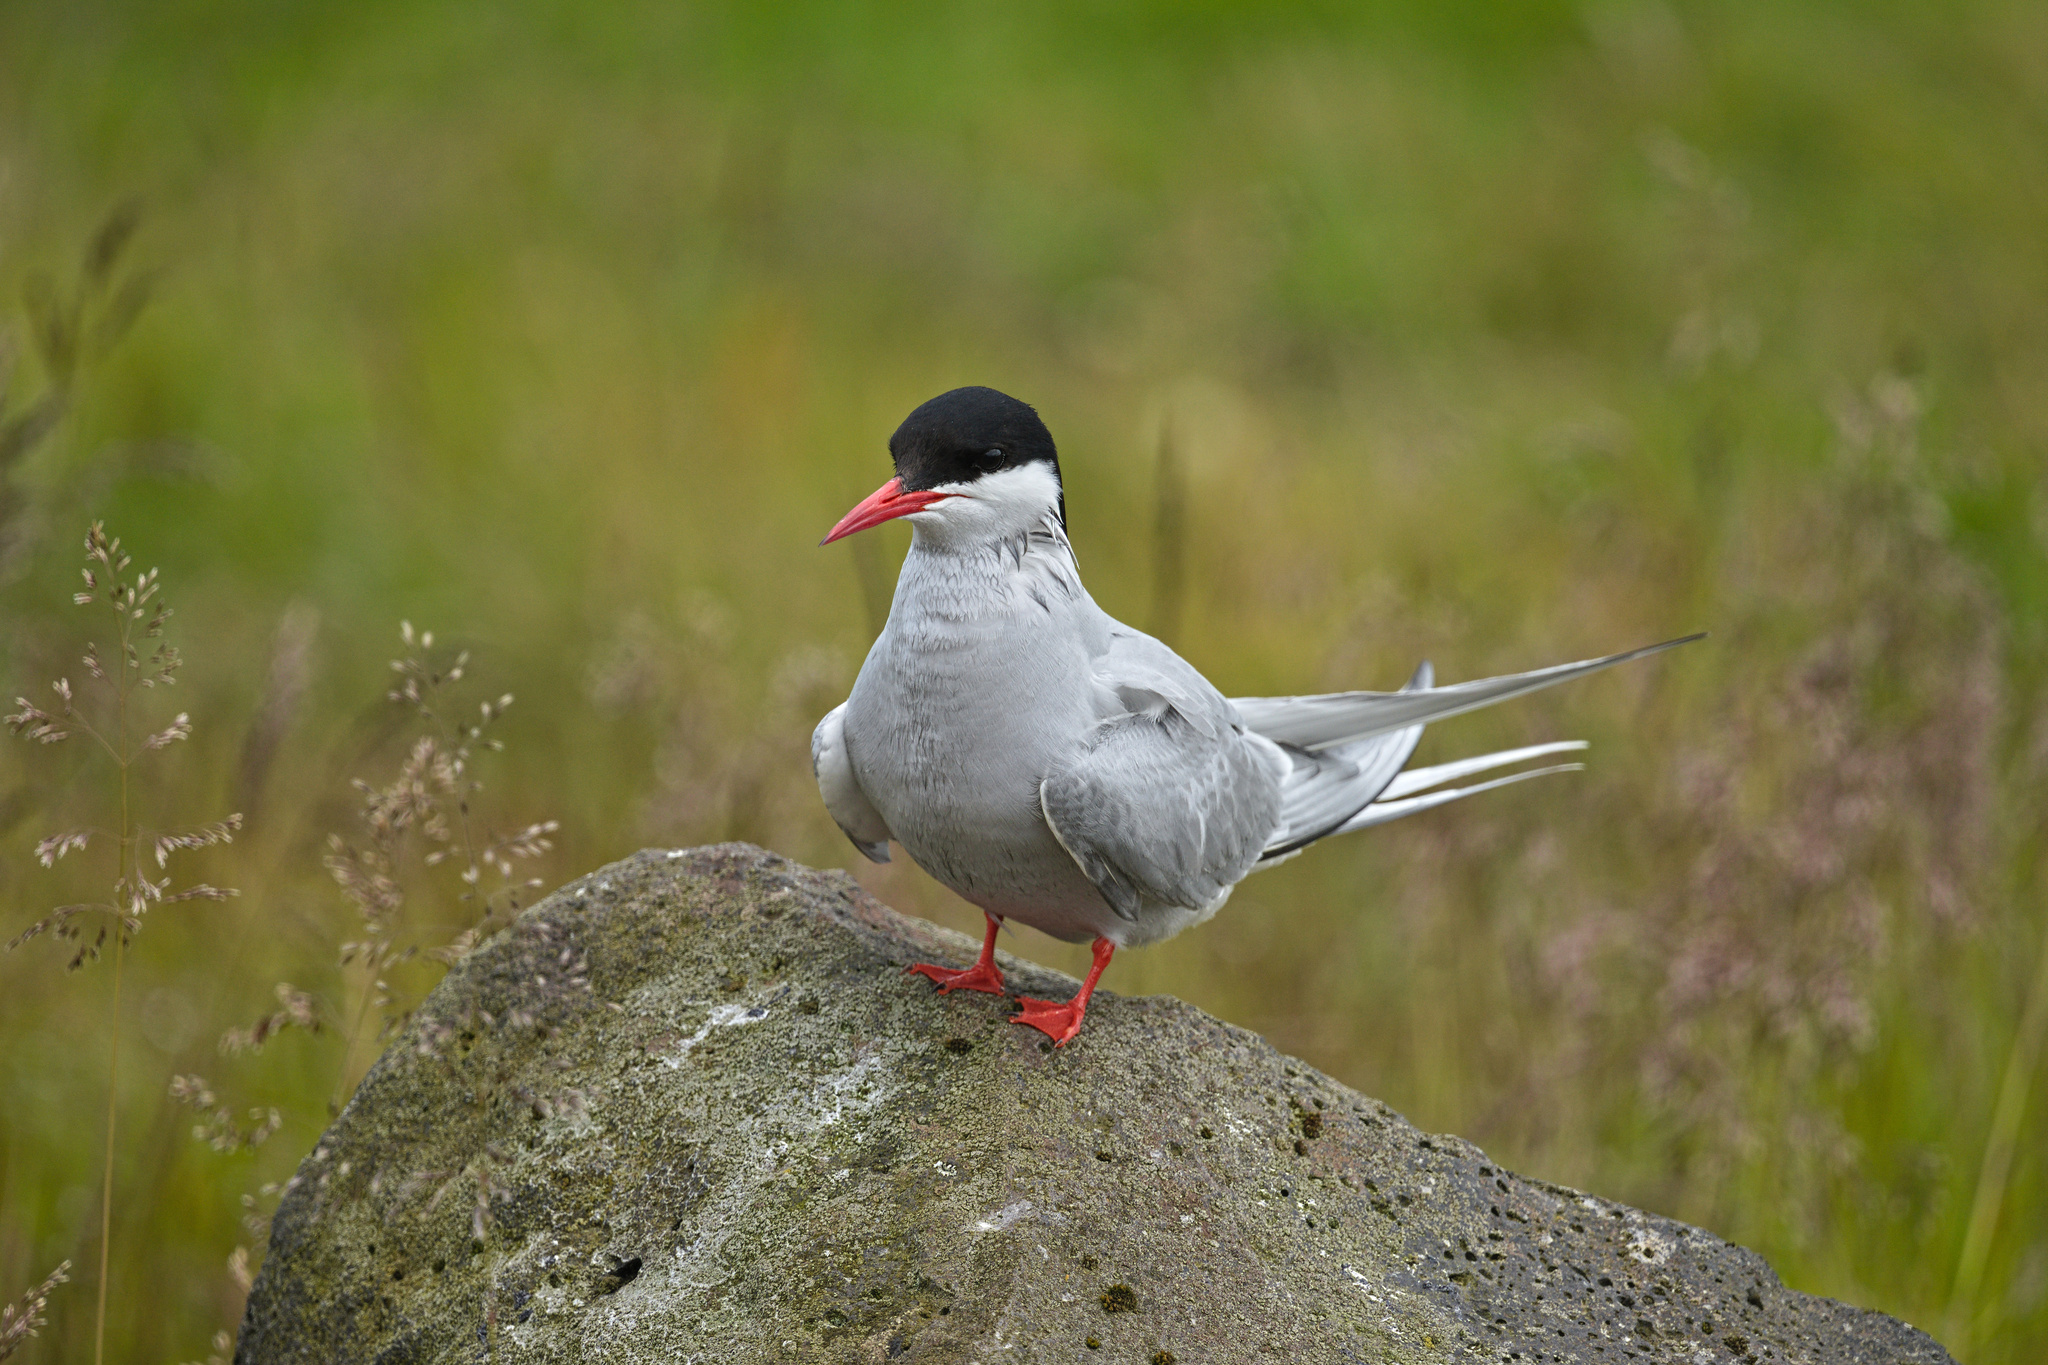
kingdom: Animalia
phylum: Chordata
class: Aves
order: Charadriiformes
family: Laridae
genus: Sterna
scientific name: Sterna paradisaea
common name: Arctic tern
